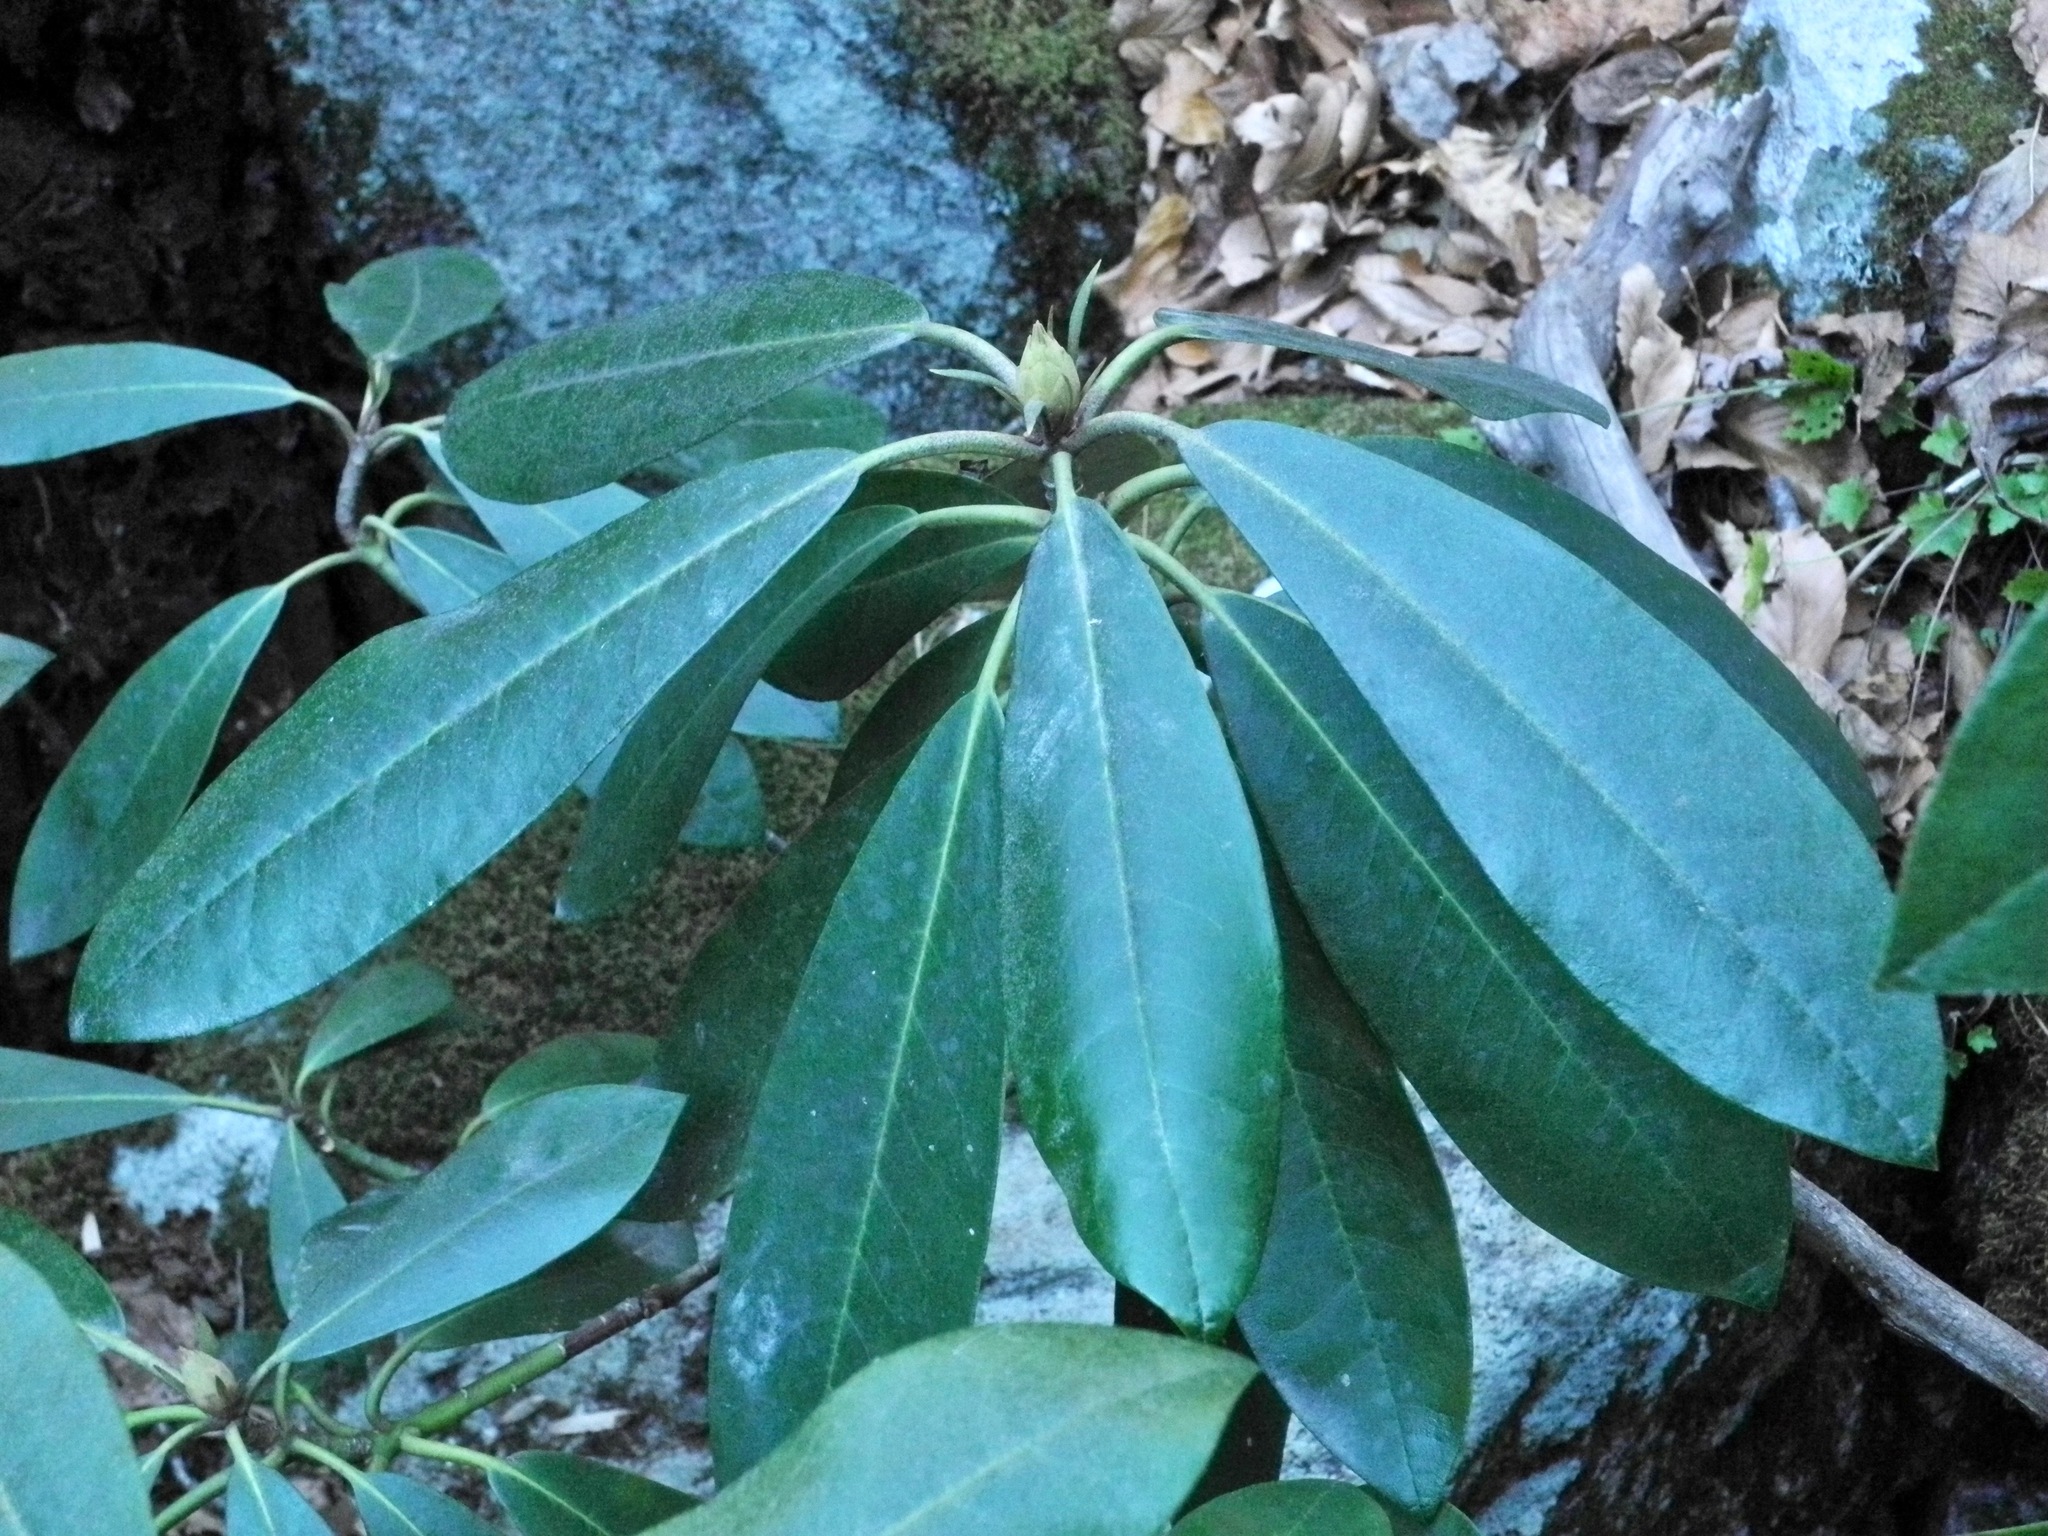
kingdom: Plantae
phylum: Tracheophyta
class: Magnoliopsida
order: Ericales
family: Ericaceae
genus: Rhododendron
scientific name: Rhododendron maximum
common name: Great rhododendron
